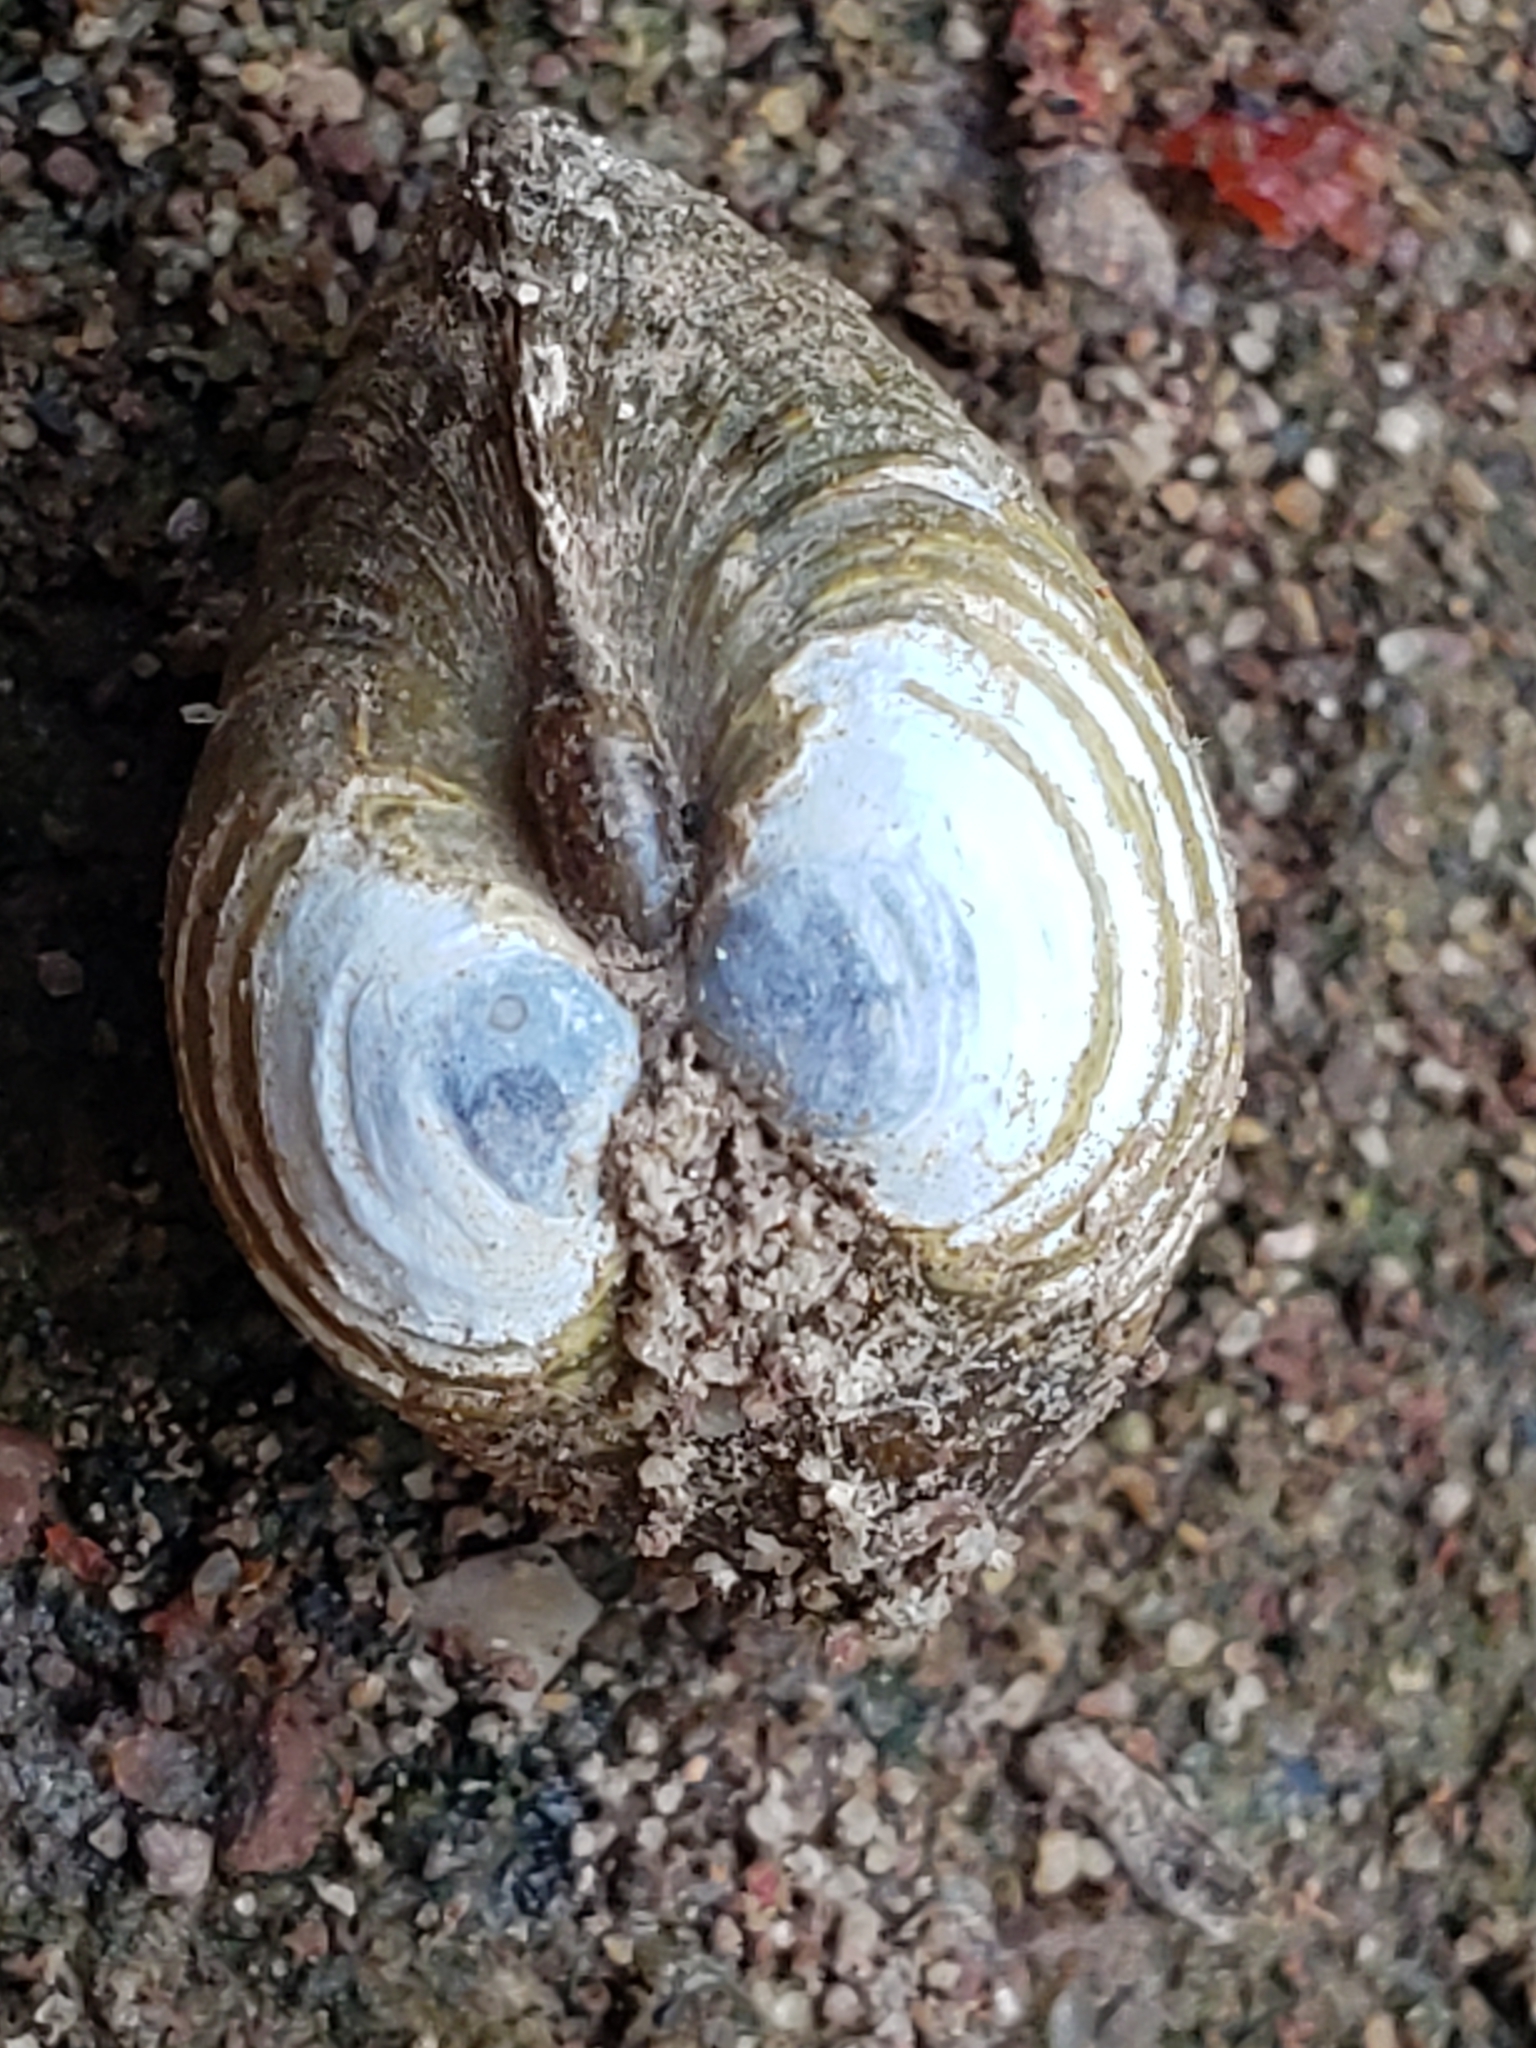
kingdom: Animalia
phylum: Mollusca
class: Bivalvia
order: Venerida
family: Cyrenidae
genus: Corbicula
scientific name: Corbicula fluminea
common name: Asian clam
